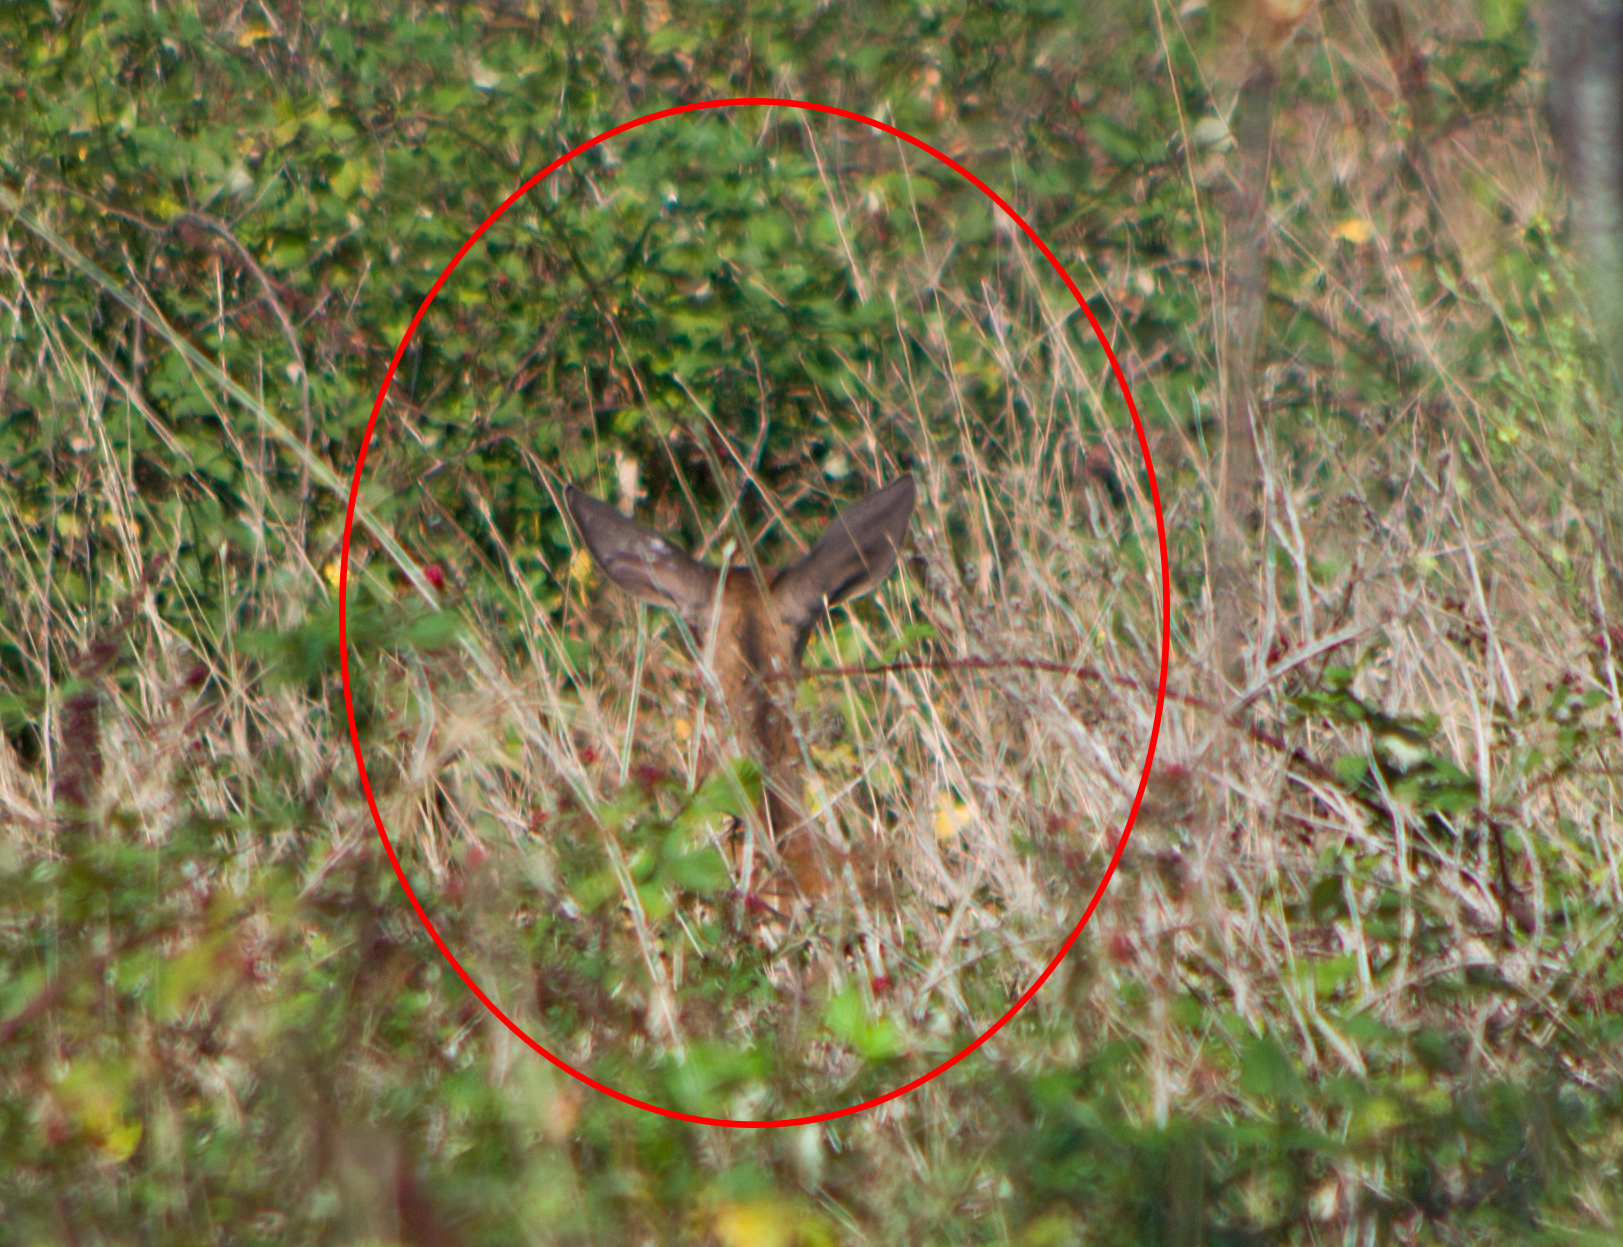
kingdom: Animalia
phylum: Chordata
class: Mammalia
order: Artiodactyla
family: Cervidae
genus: Cervus
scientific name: Cervus elaphus
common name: Red deer
